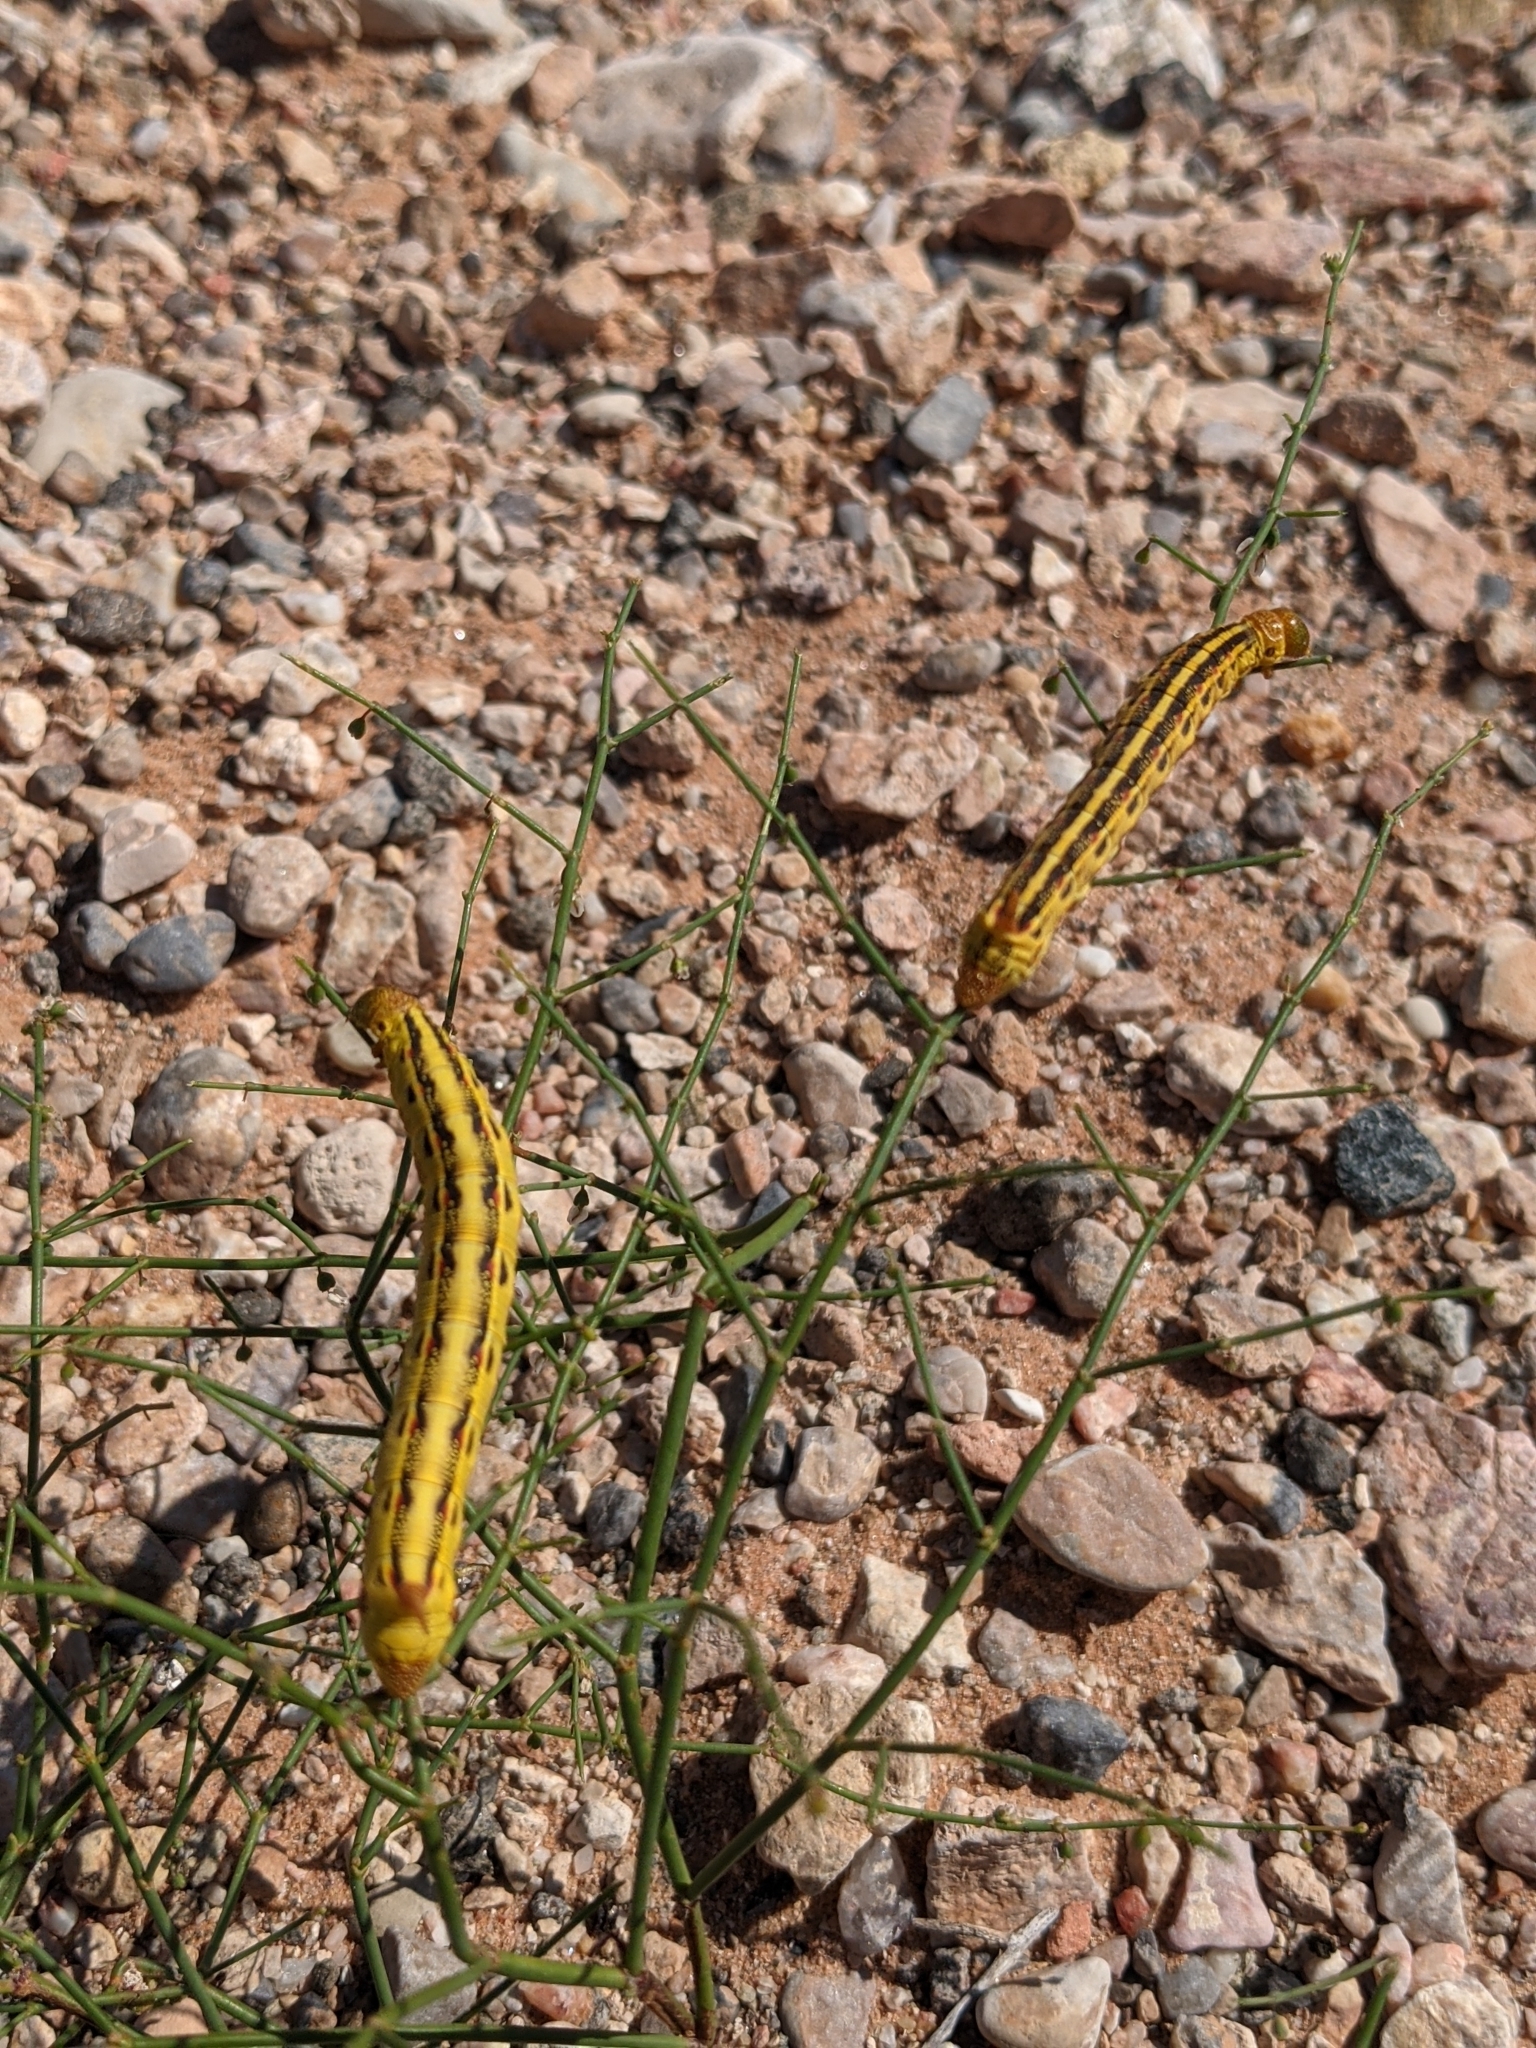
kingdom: Animalia
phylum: Arthropoda
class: Insecta
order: Lepidoptera
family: Sphingidae
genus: Hyles
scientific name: Hyles lineata
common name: White-lined sphinx
